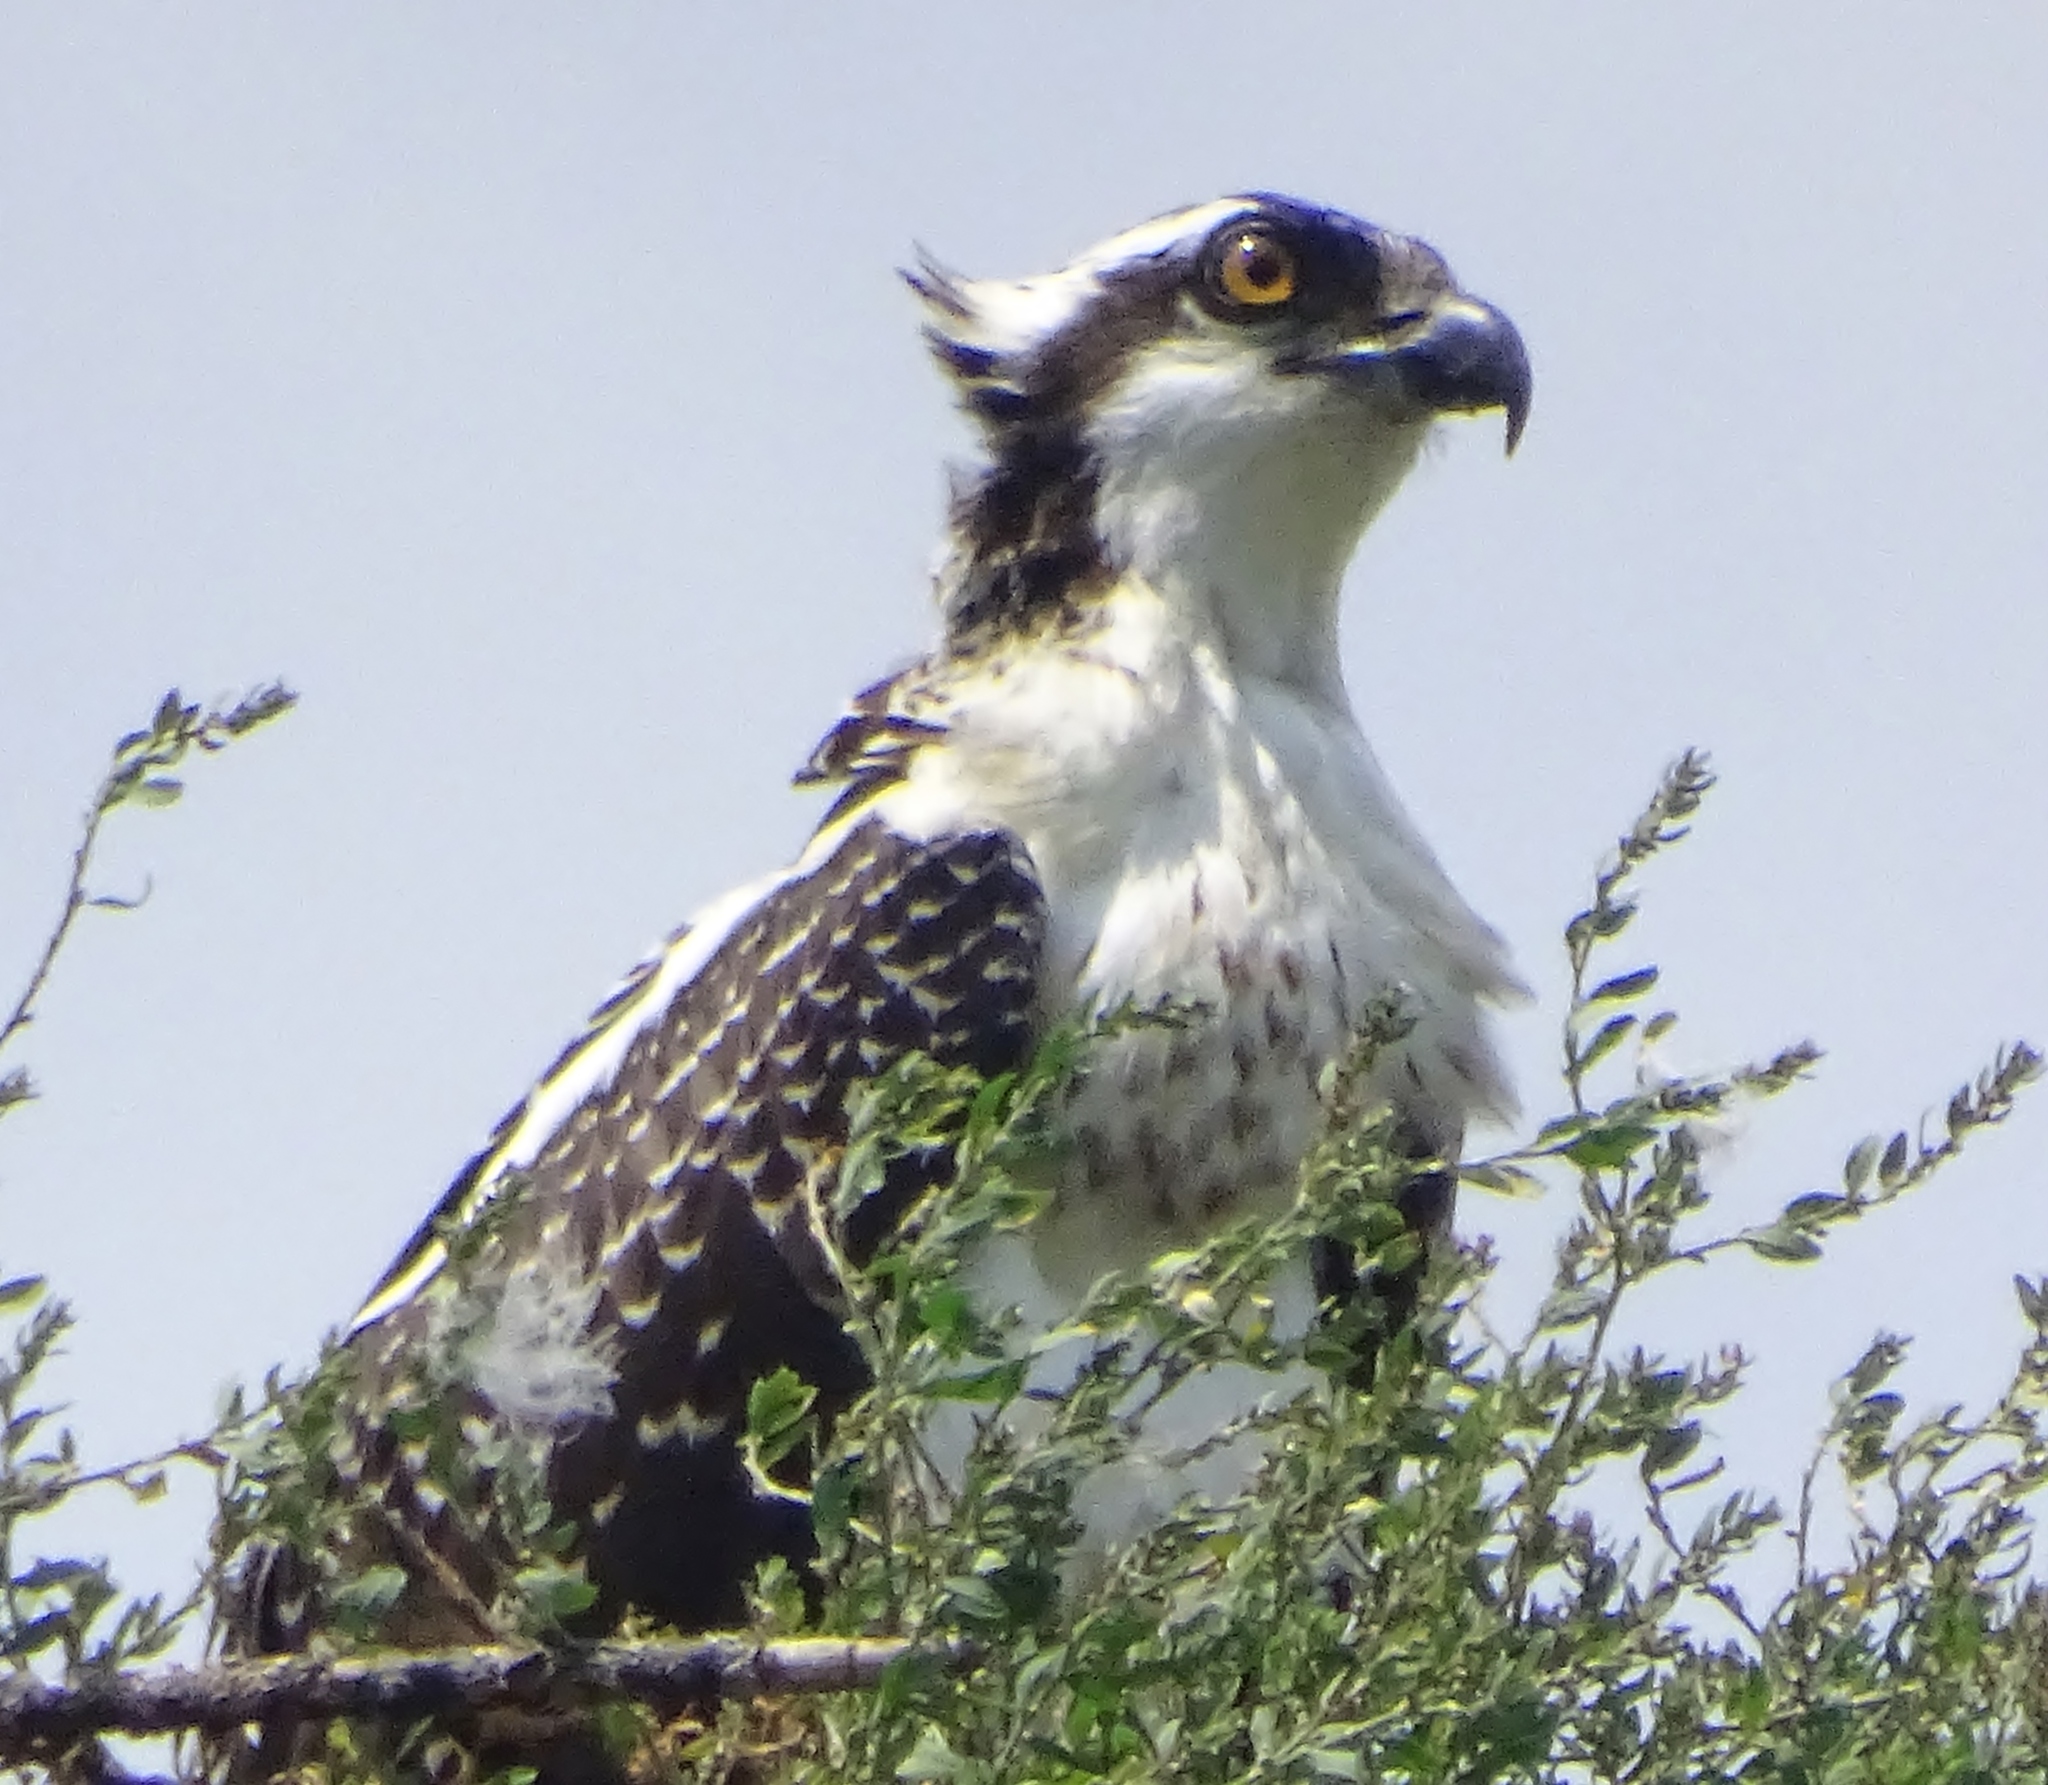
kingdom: Animalia
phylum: Chordata
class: Aves
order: Accipitriformes
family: Pandionidae
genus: Pandion
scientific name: Pandion haliaetus
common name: Osprey
